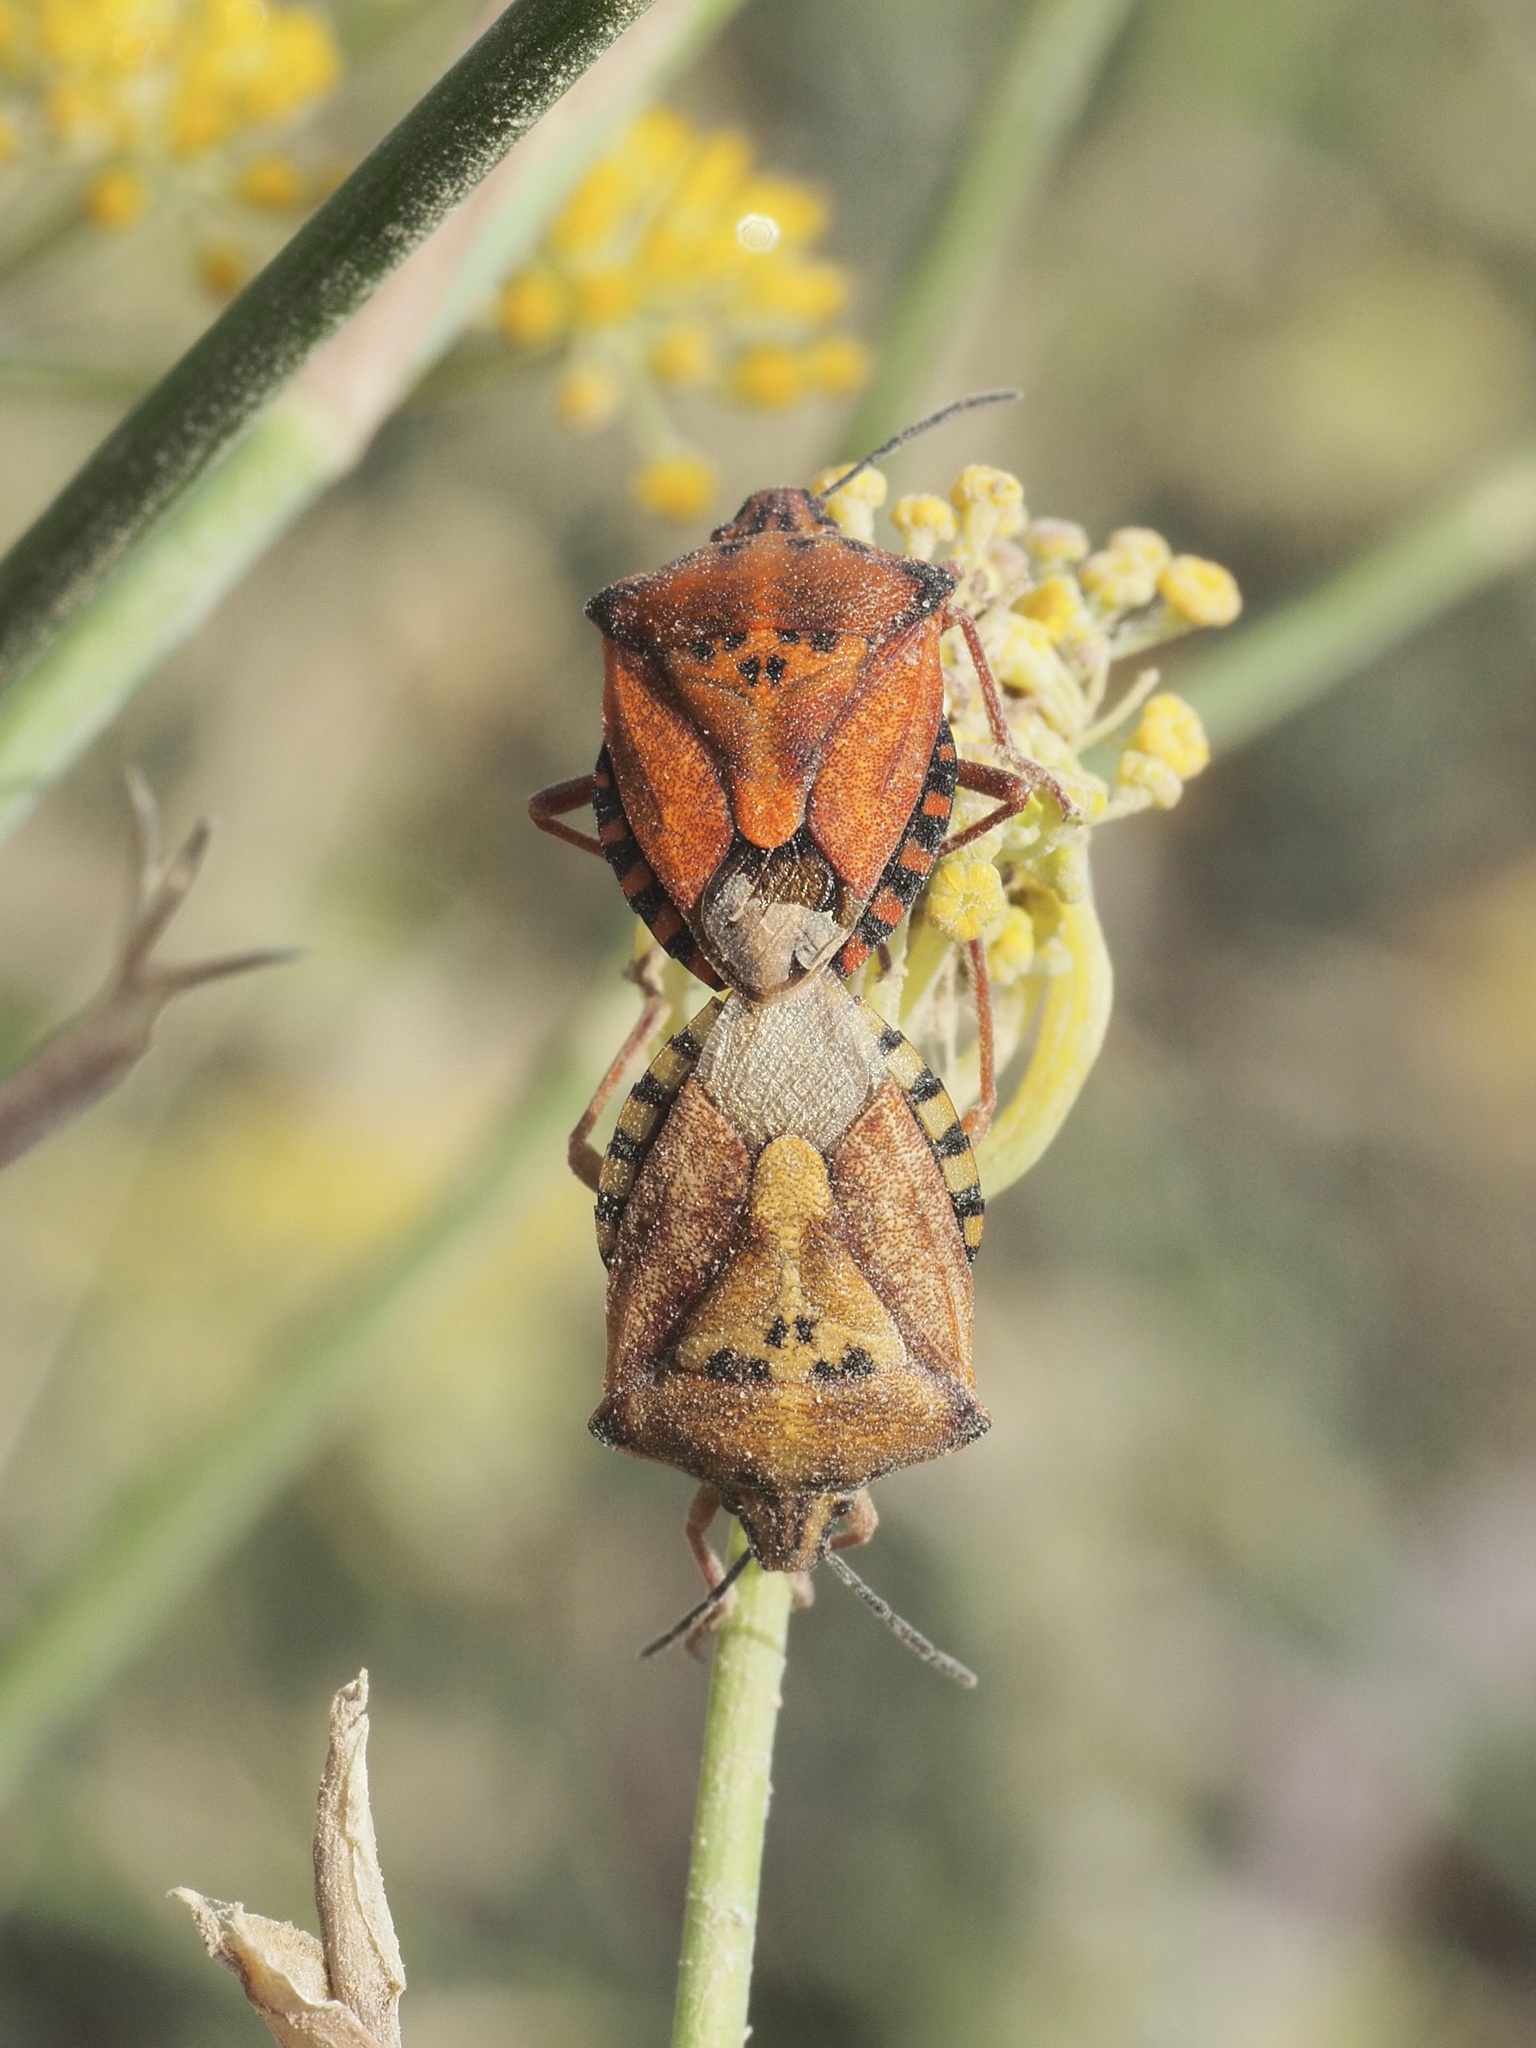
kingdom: Animalia
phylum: Arthropoda
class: Insecta
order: Hemiptera
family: Pentatomidae
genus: Carpocoris
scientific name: Carpocoris mediterraneus
